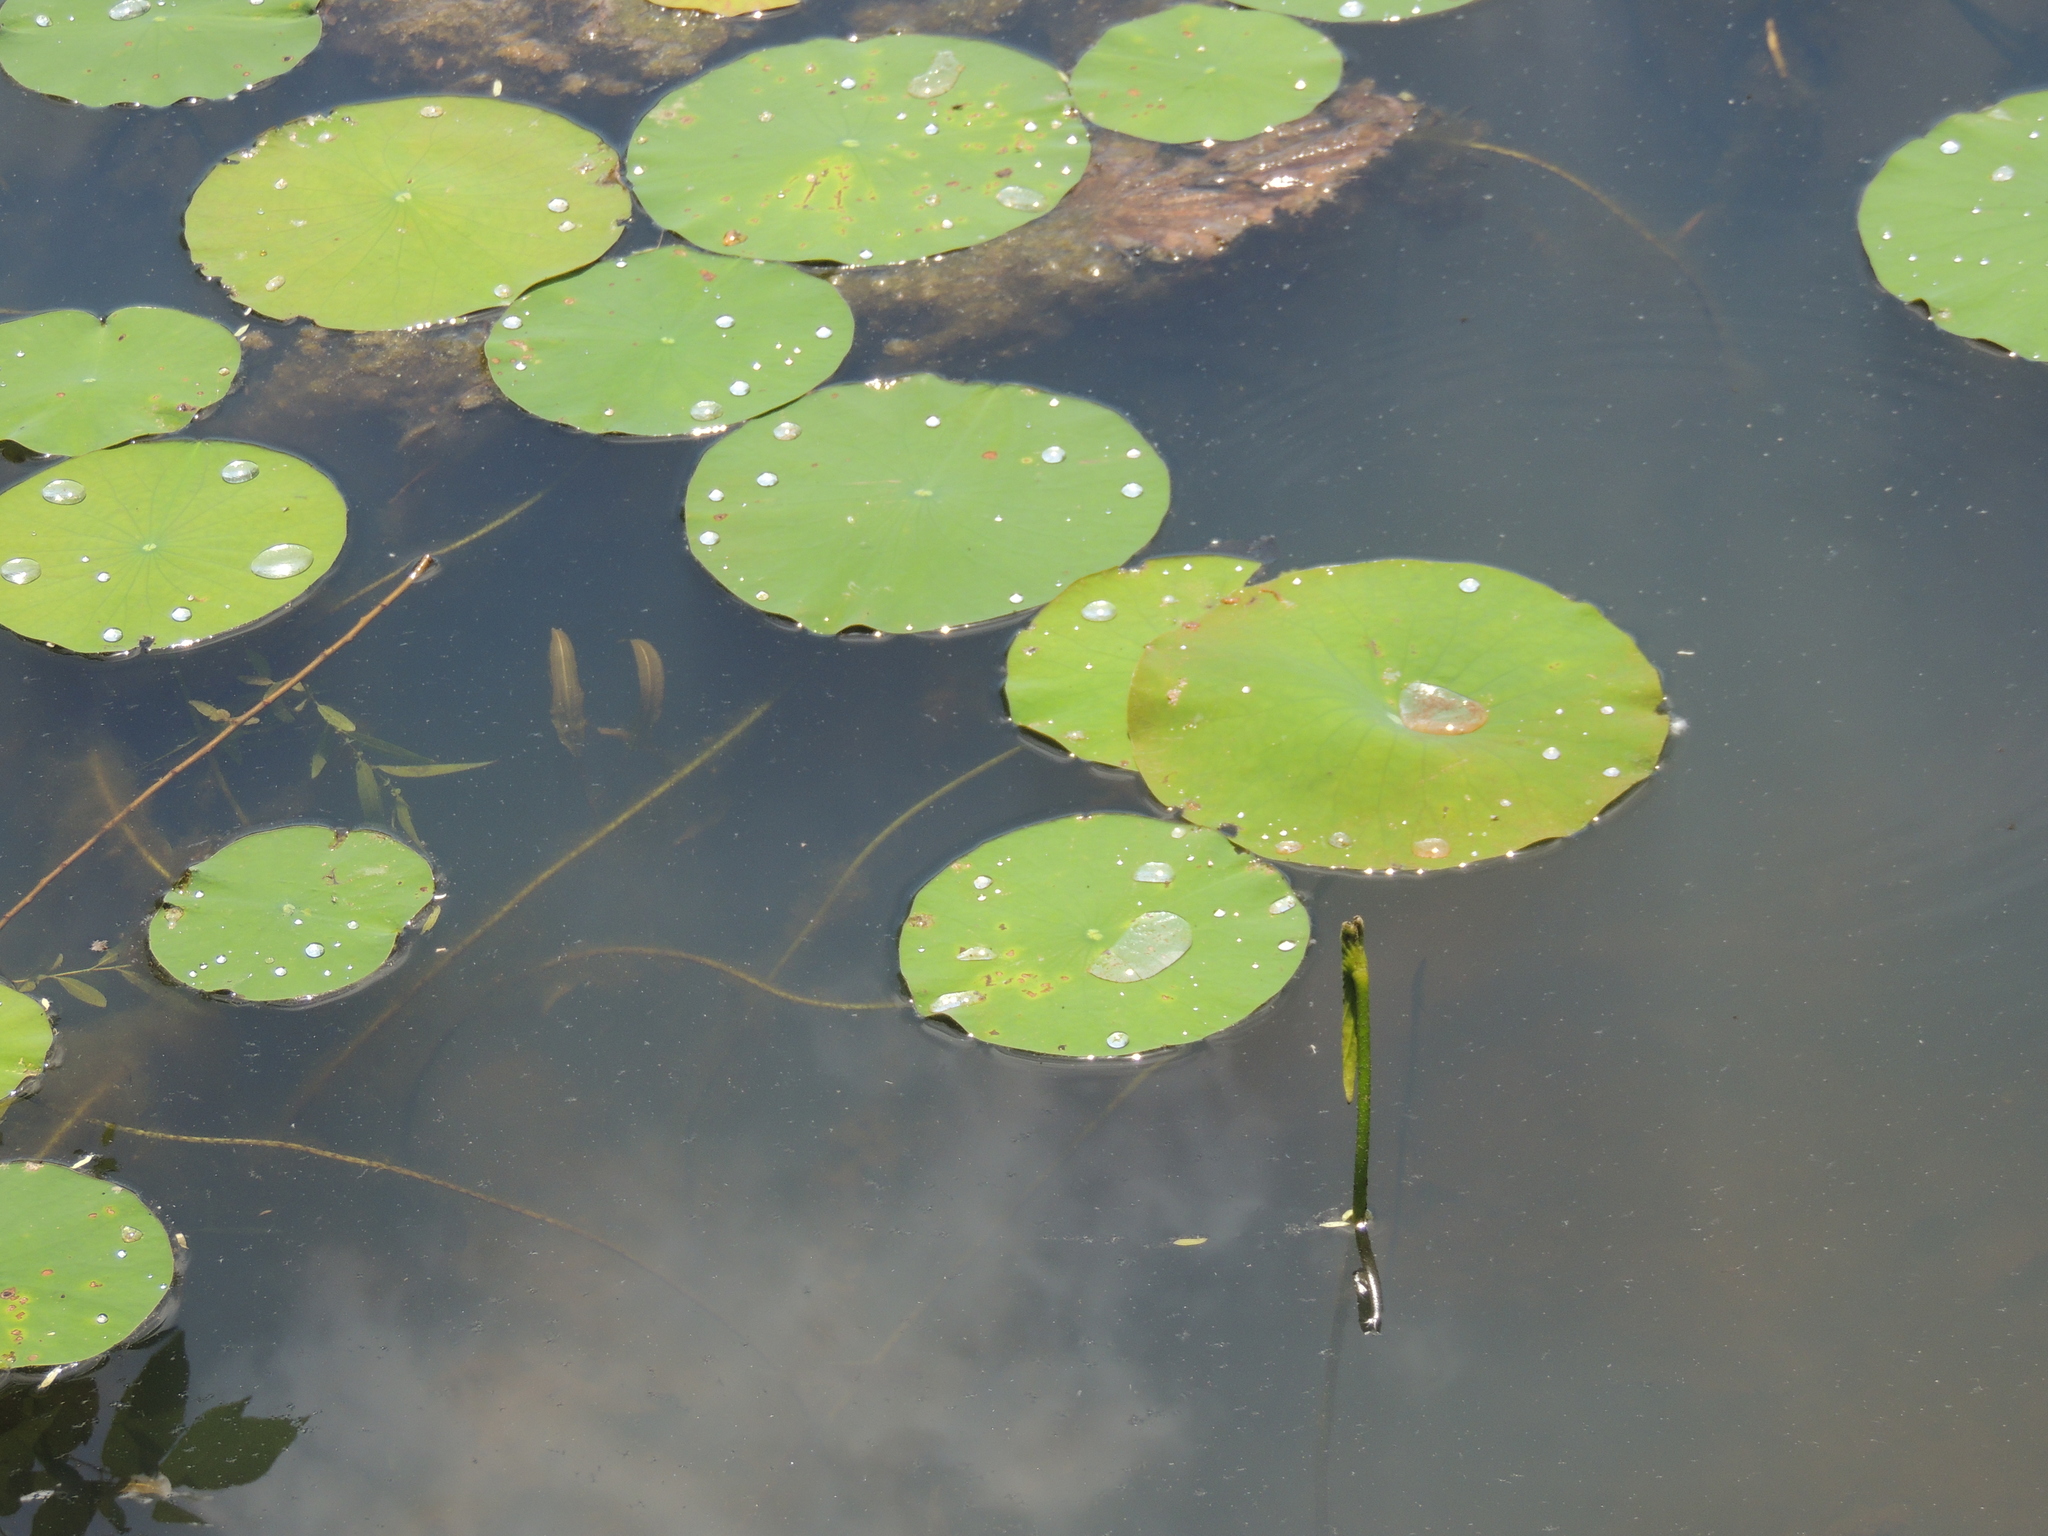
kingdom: Plantae
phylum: Tracheophyta
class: Magnoliopsida
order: Proteales
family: Nelumbonaceae
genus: Nelumbo
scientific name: Nelumbo lutea
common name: American lotus
